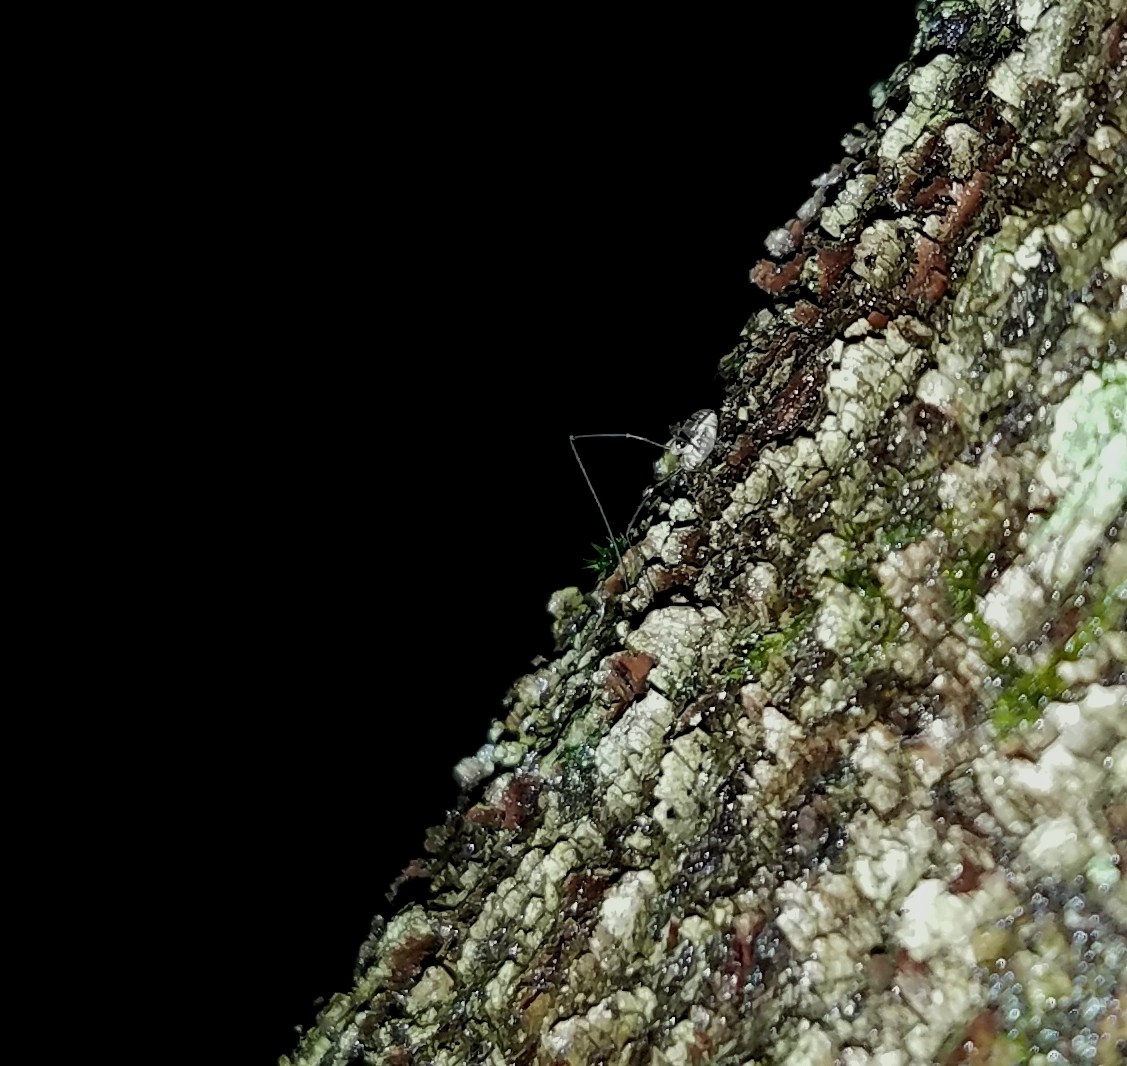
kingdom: Animalia
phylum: Arthropoda
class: Arachnida
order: Opiliones
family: Caddidae
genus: Caddo
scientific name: Caddo agilis
